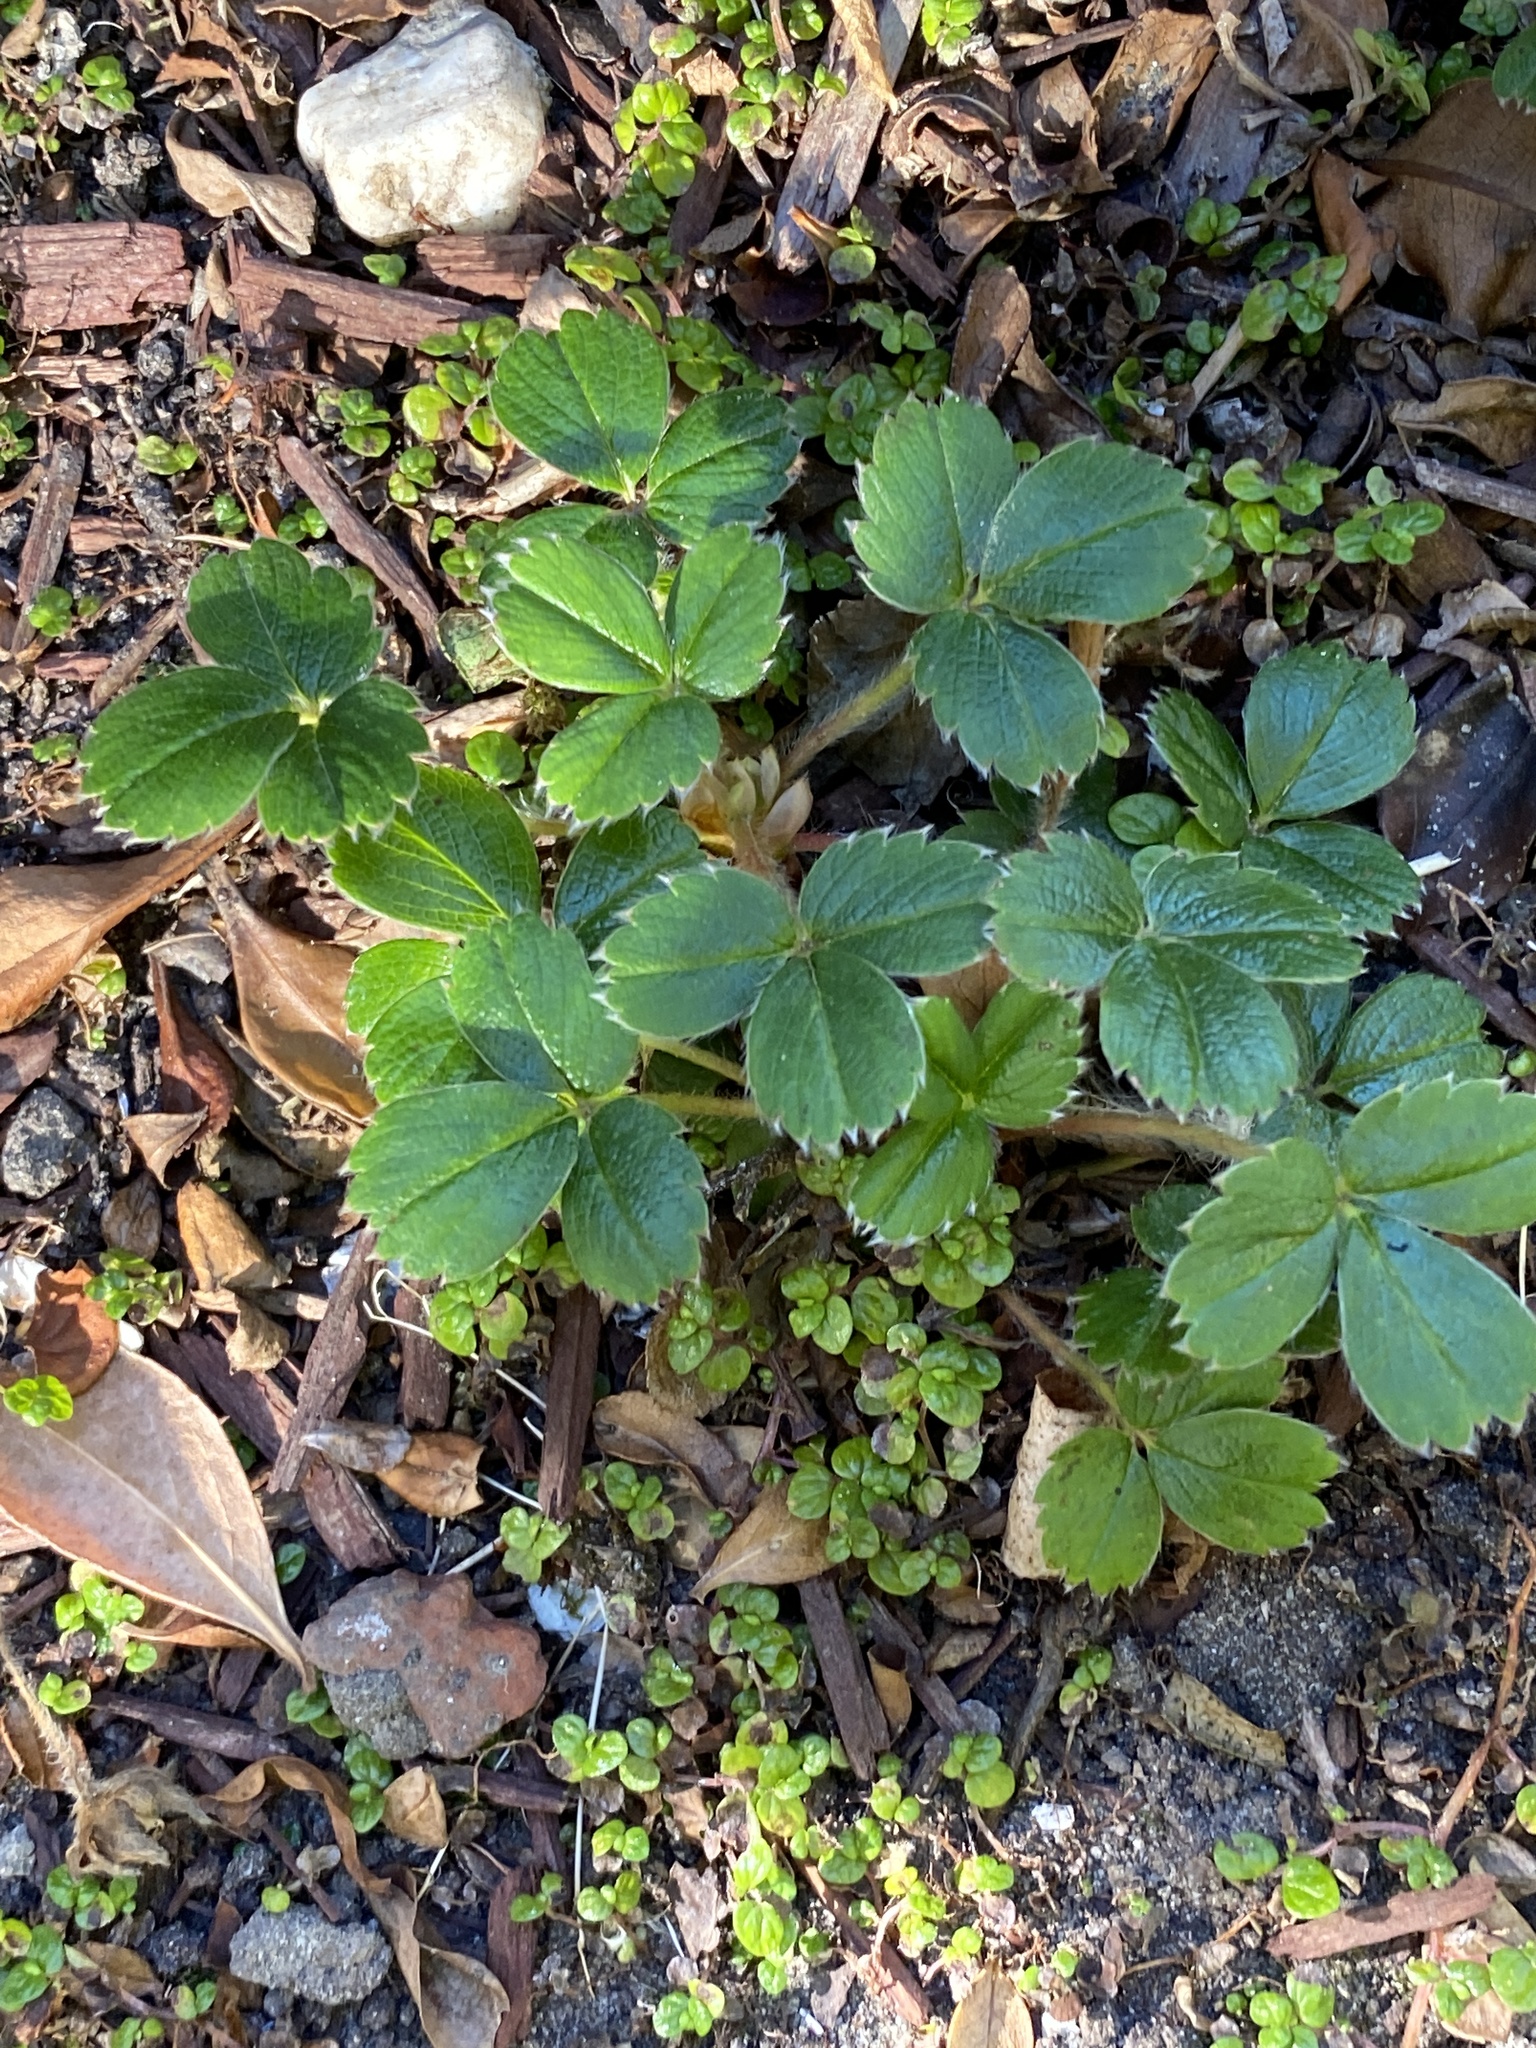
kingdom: Plantae
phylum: Tracheophyta
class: Magnoliopsida
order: Rosales
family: Rosaceae
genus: Fragaria
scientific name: Fragaria chiloensis
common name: Beach strawberry
